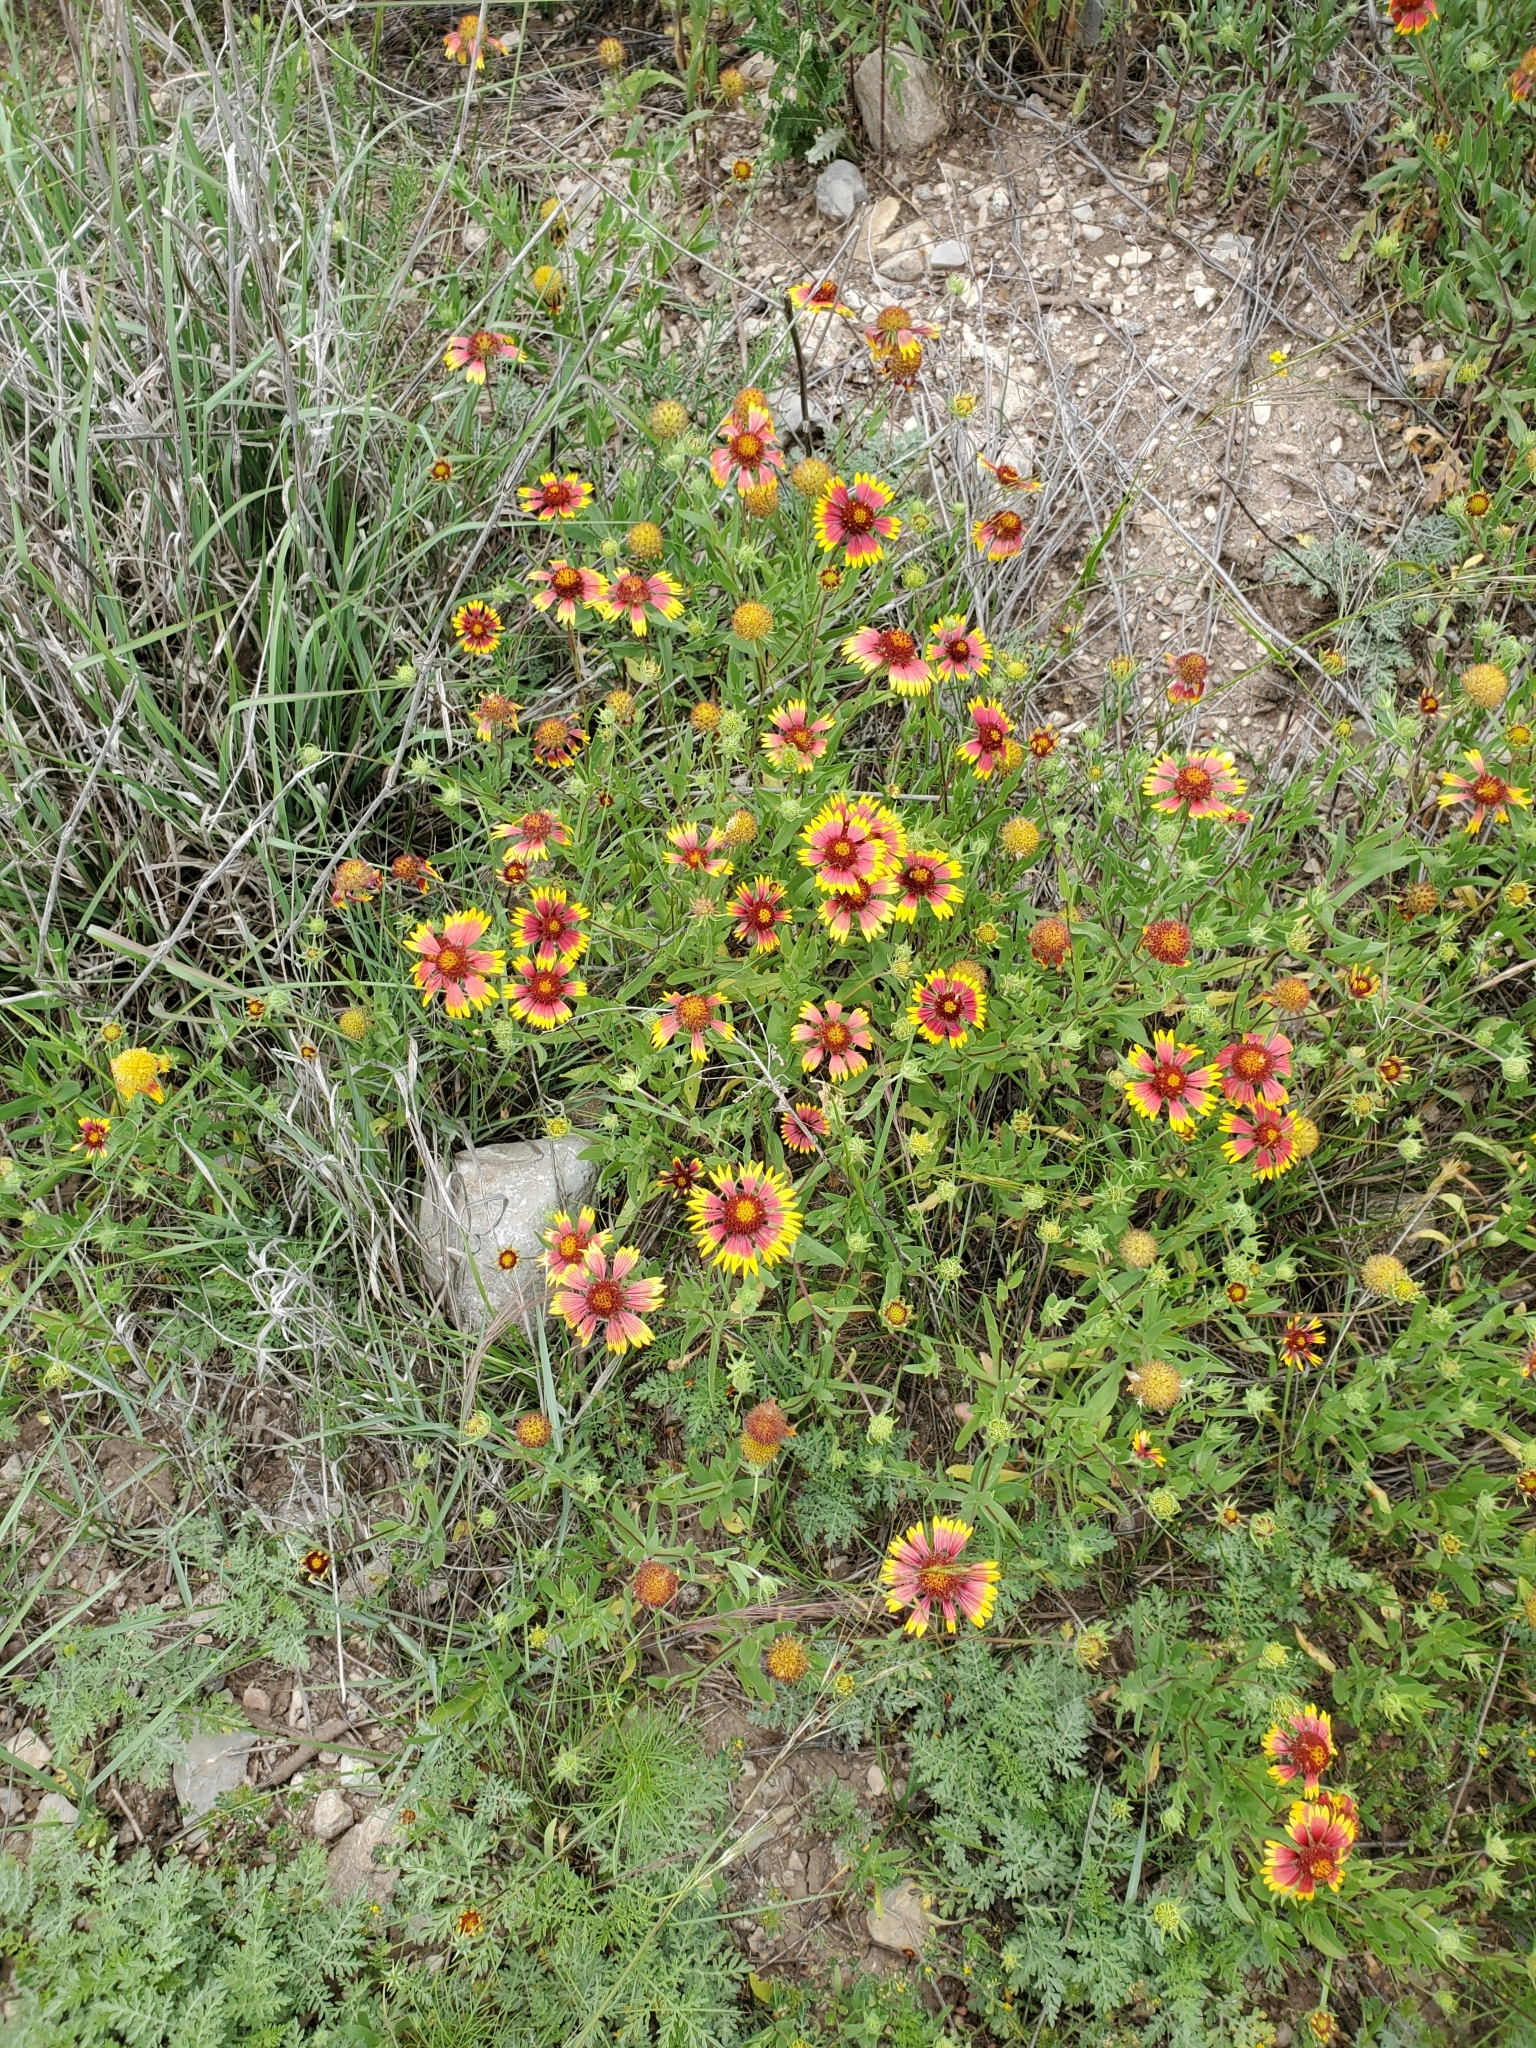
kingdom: Plantae
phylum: Tracheophyta
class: Magnoliopsida
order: Asterales
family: Asteraceae
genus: Gaillardia
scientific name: Gaillardia pulchella
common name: Firewheel
